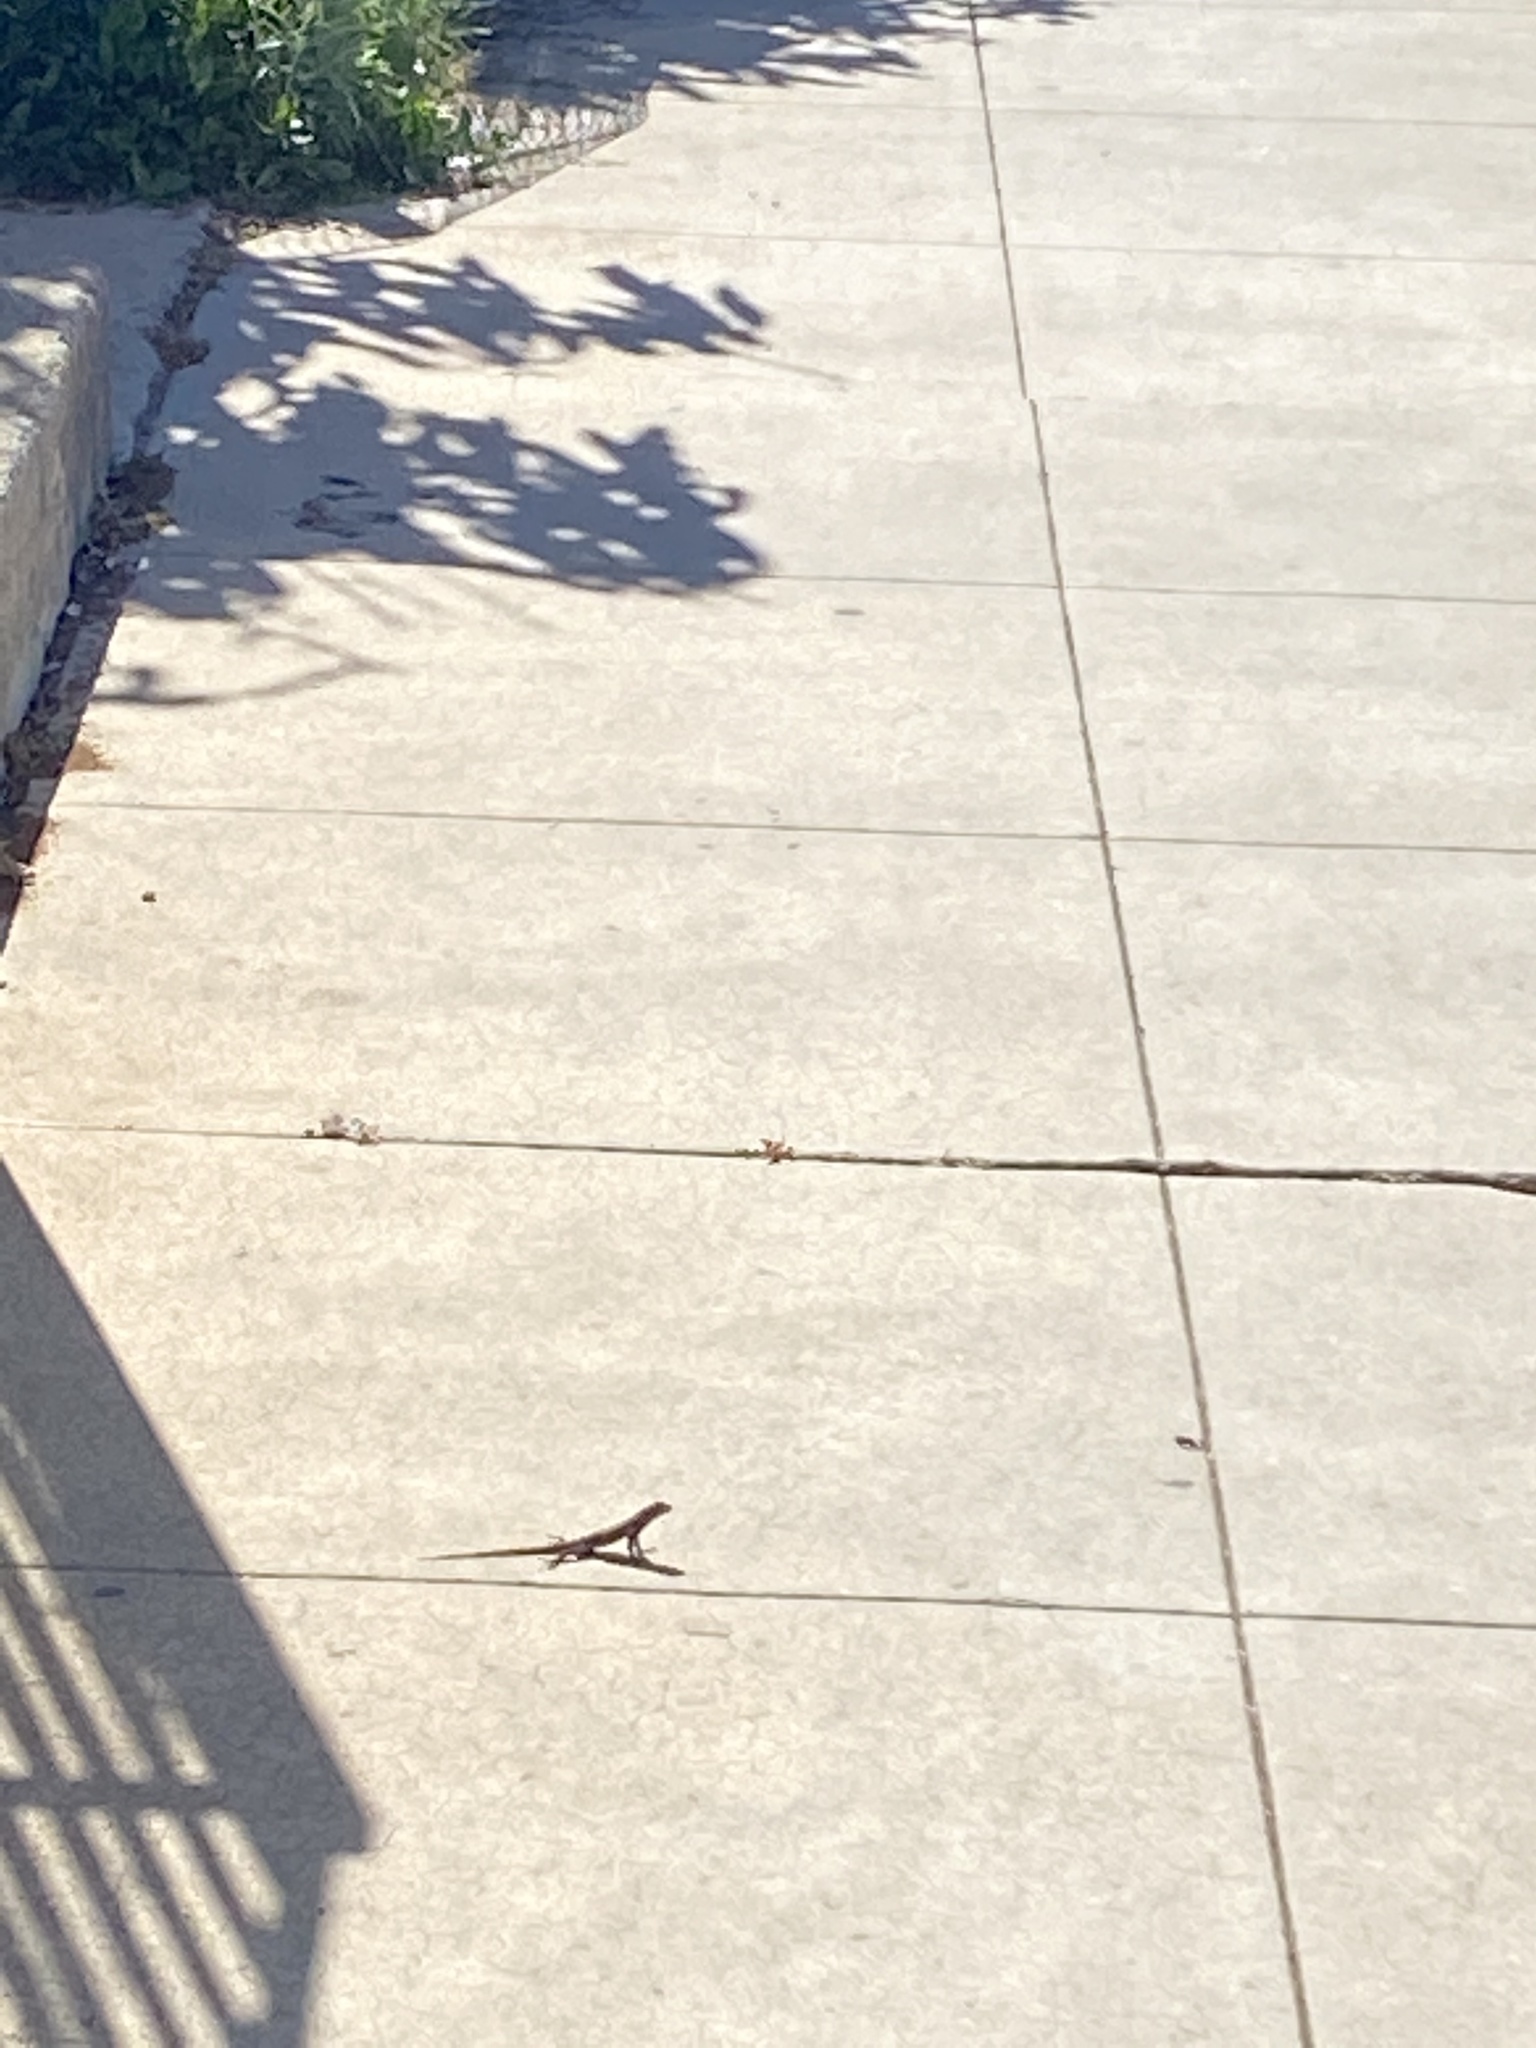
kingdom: Animalia
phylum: Chordata
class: Squamata
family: Phrynosomatidae
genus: Sceloporus
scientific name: Sceloporus occidentalis
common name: Western fence lizard
